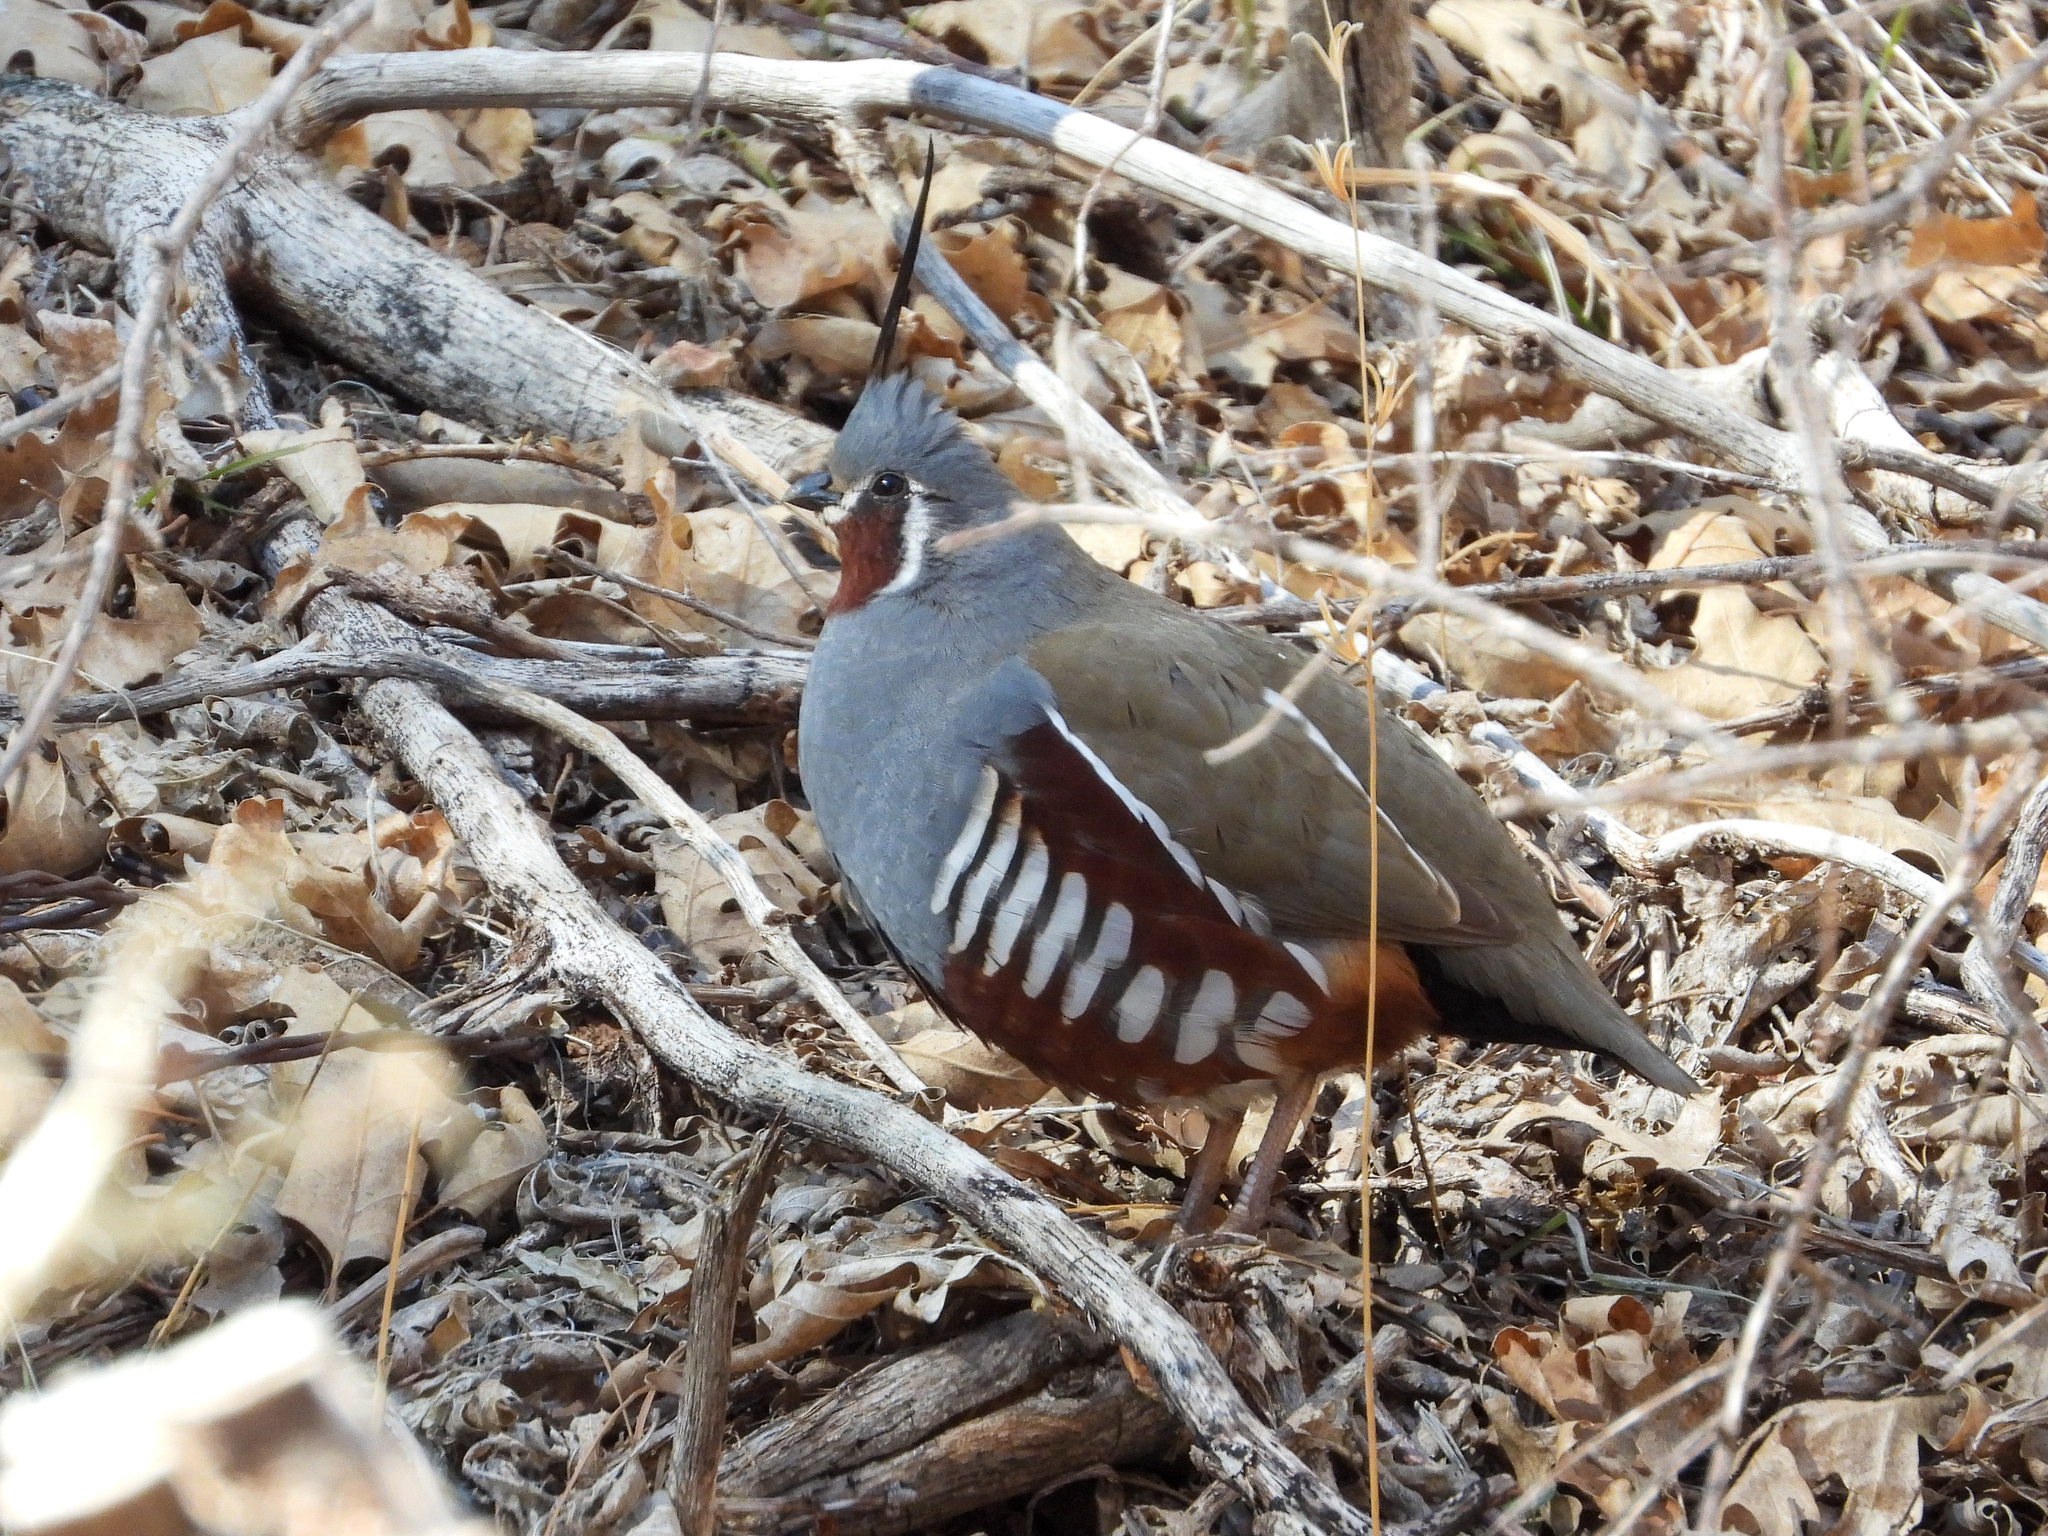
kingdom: Animalia
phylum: Chordata
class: Aves
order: Galliformes
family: Odontophoridae
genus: Oreortyx
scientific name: Oreortyx pictus
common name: Mountain quail
